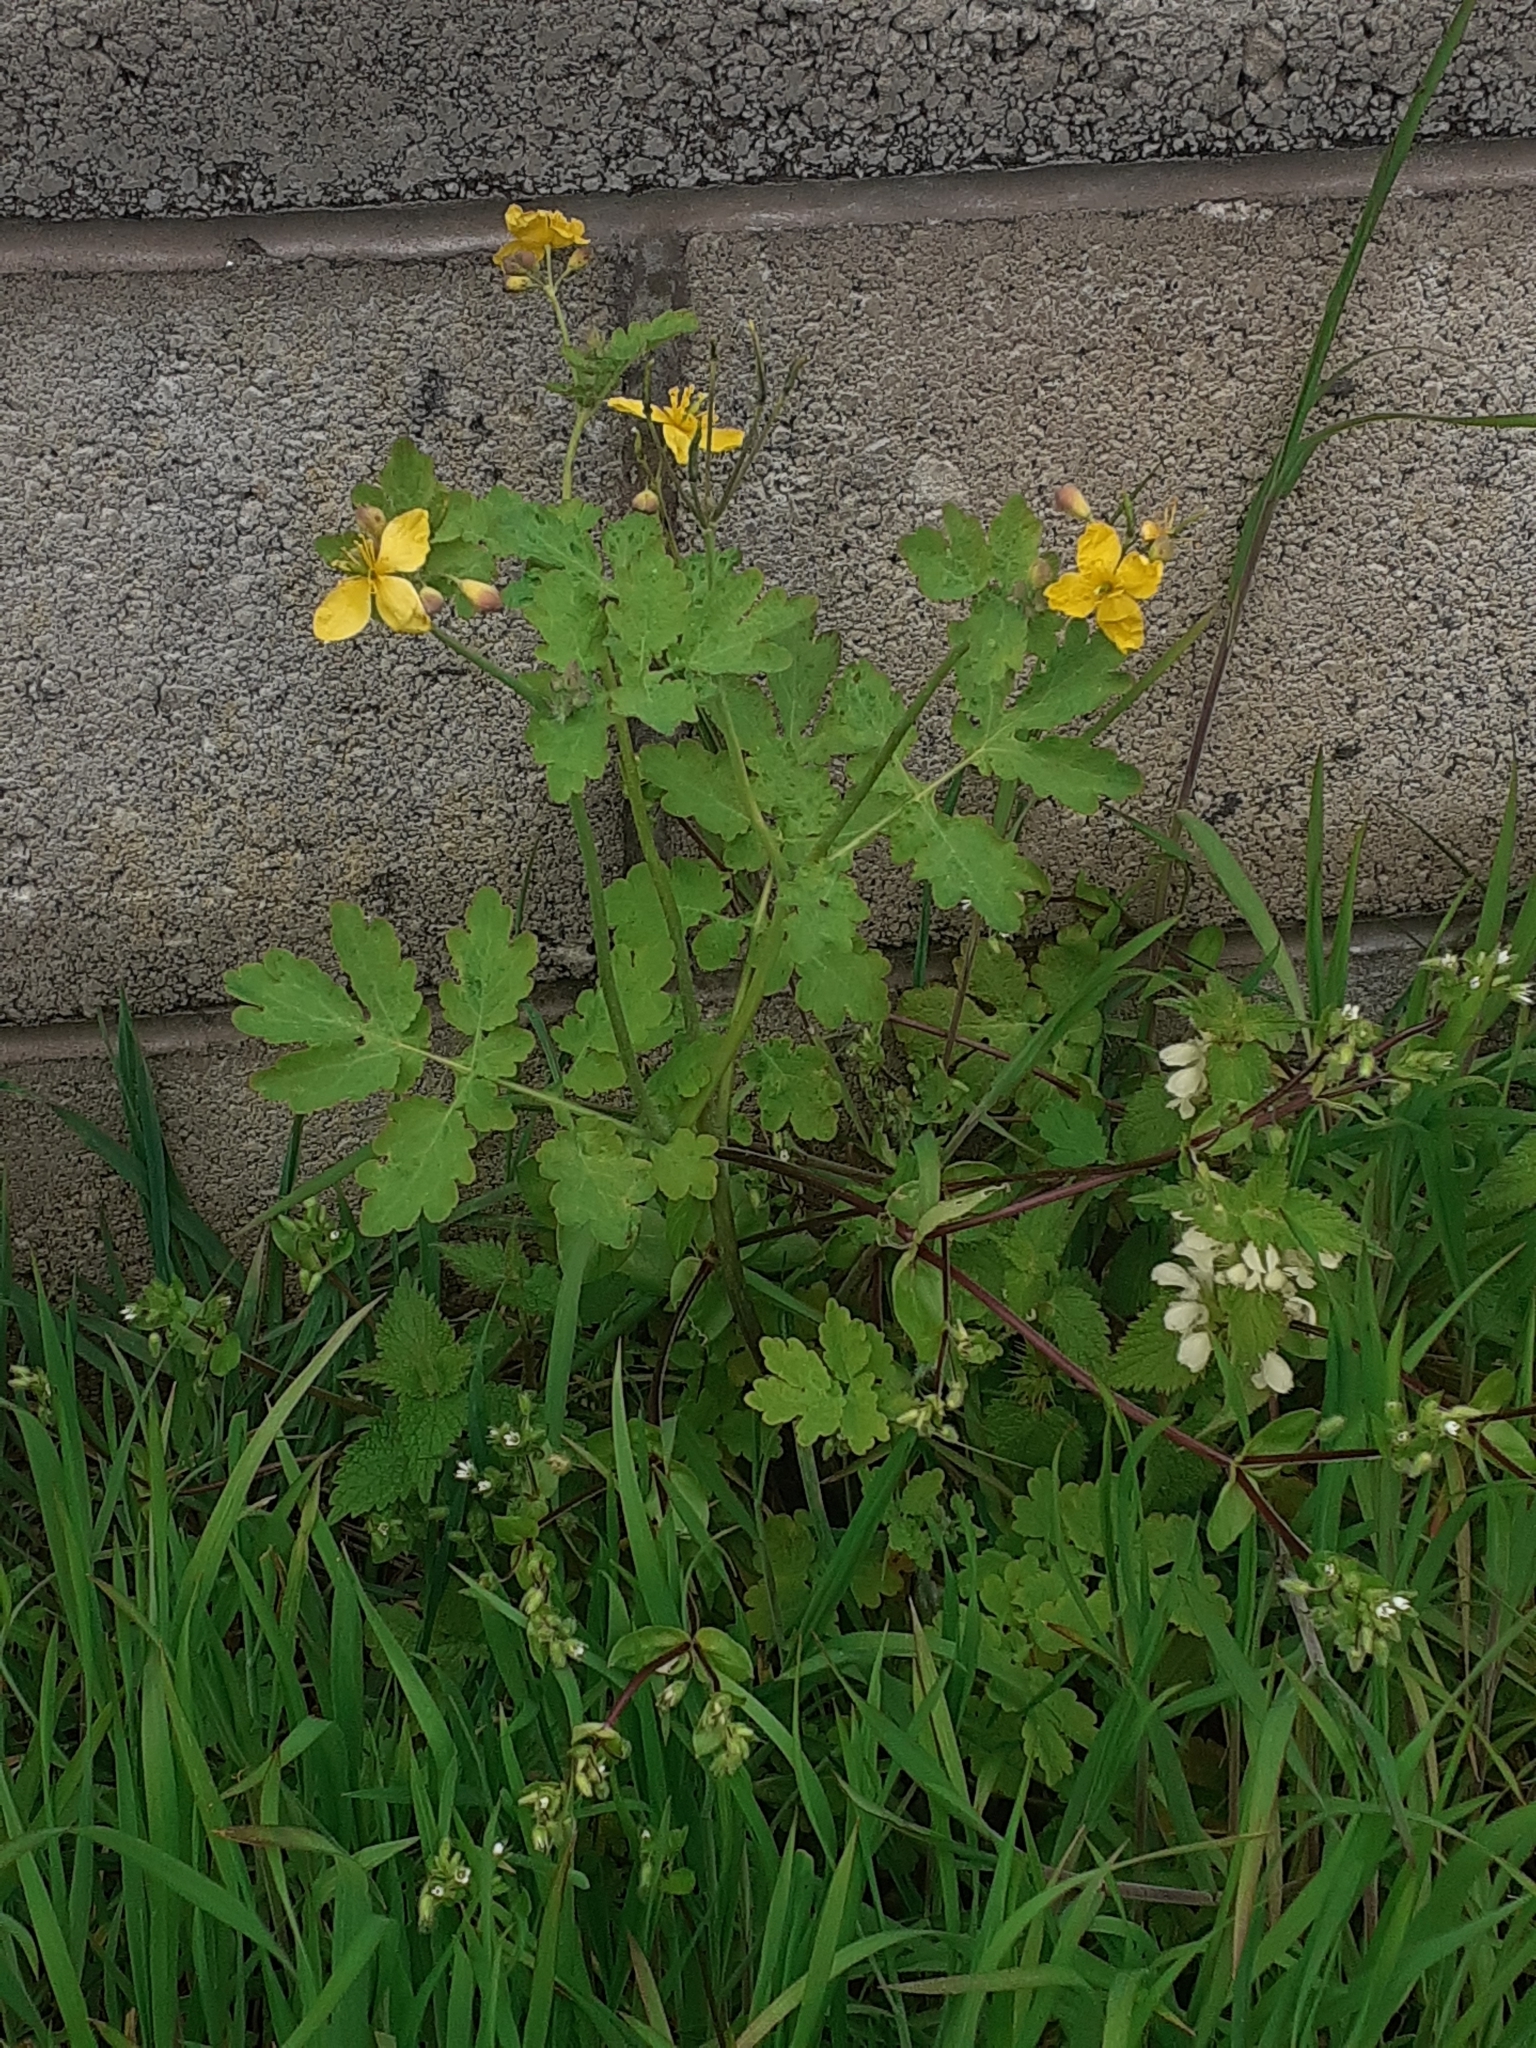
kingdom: Plantae
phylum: Tracheophyta
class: Magnoliopsida
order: Ranunculales
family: Papaveraceae
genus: Chelidonium
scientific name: Chelidonium majus
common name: Greater celandine
